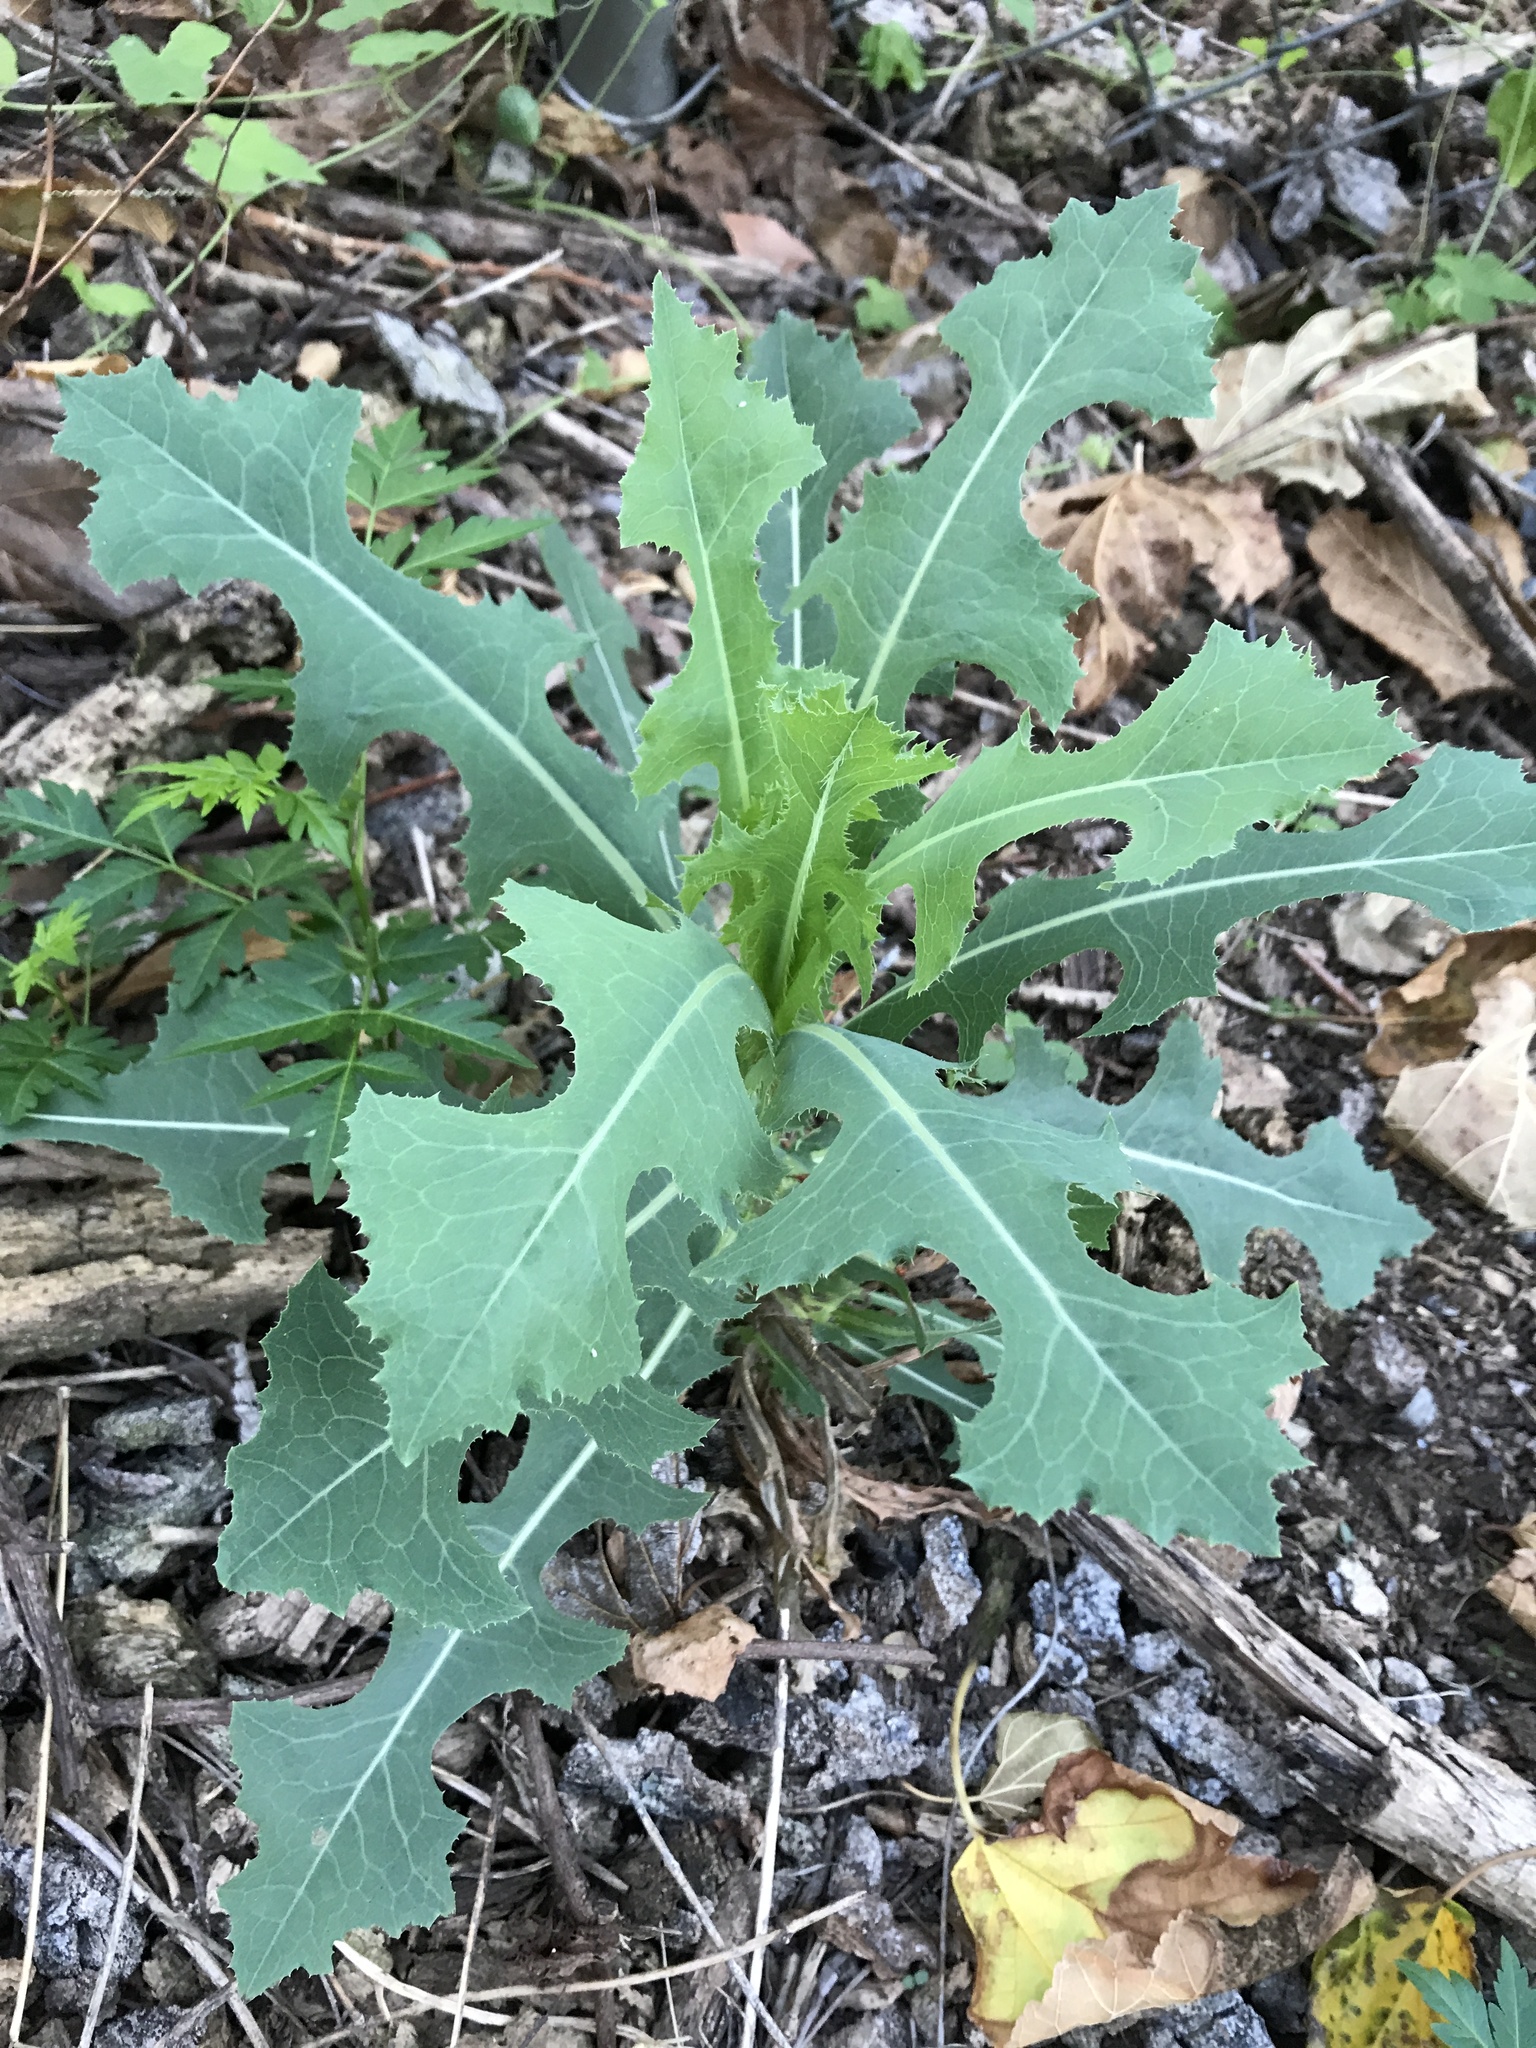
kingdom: Plantae
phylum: Tracheophyta
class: Magnoliopsida
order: Asterales
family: Asteraceae
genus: Lactuca
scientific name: Lactuca serriola
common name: Prickly lettuce
